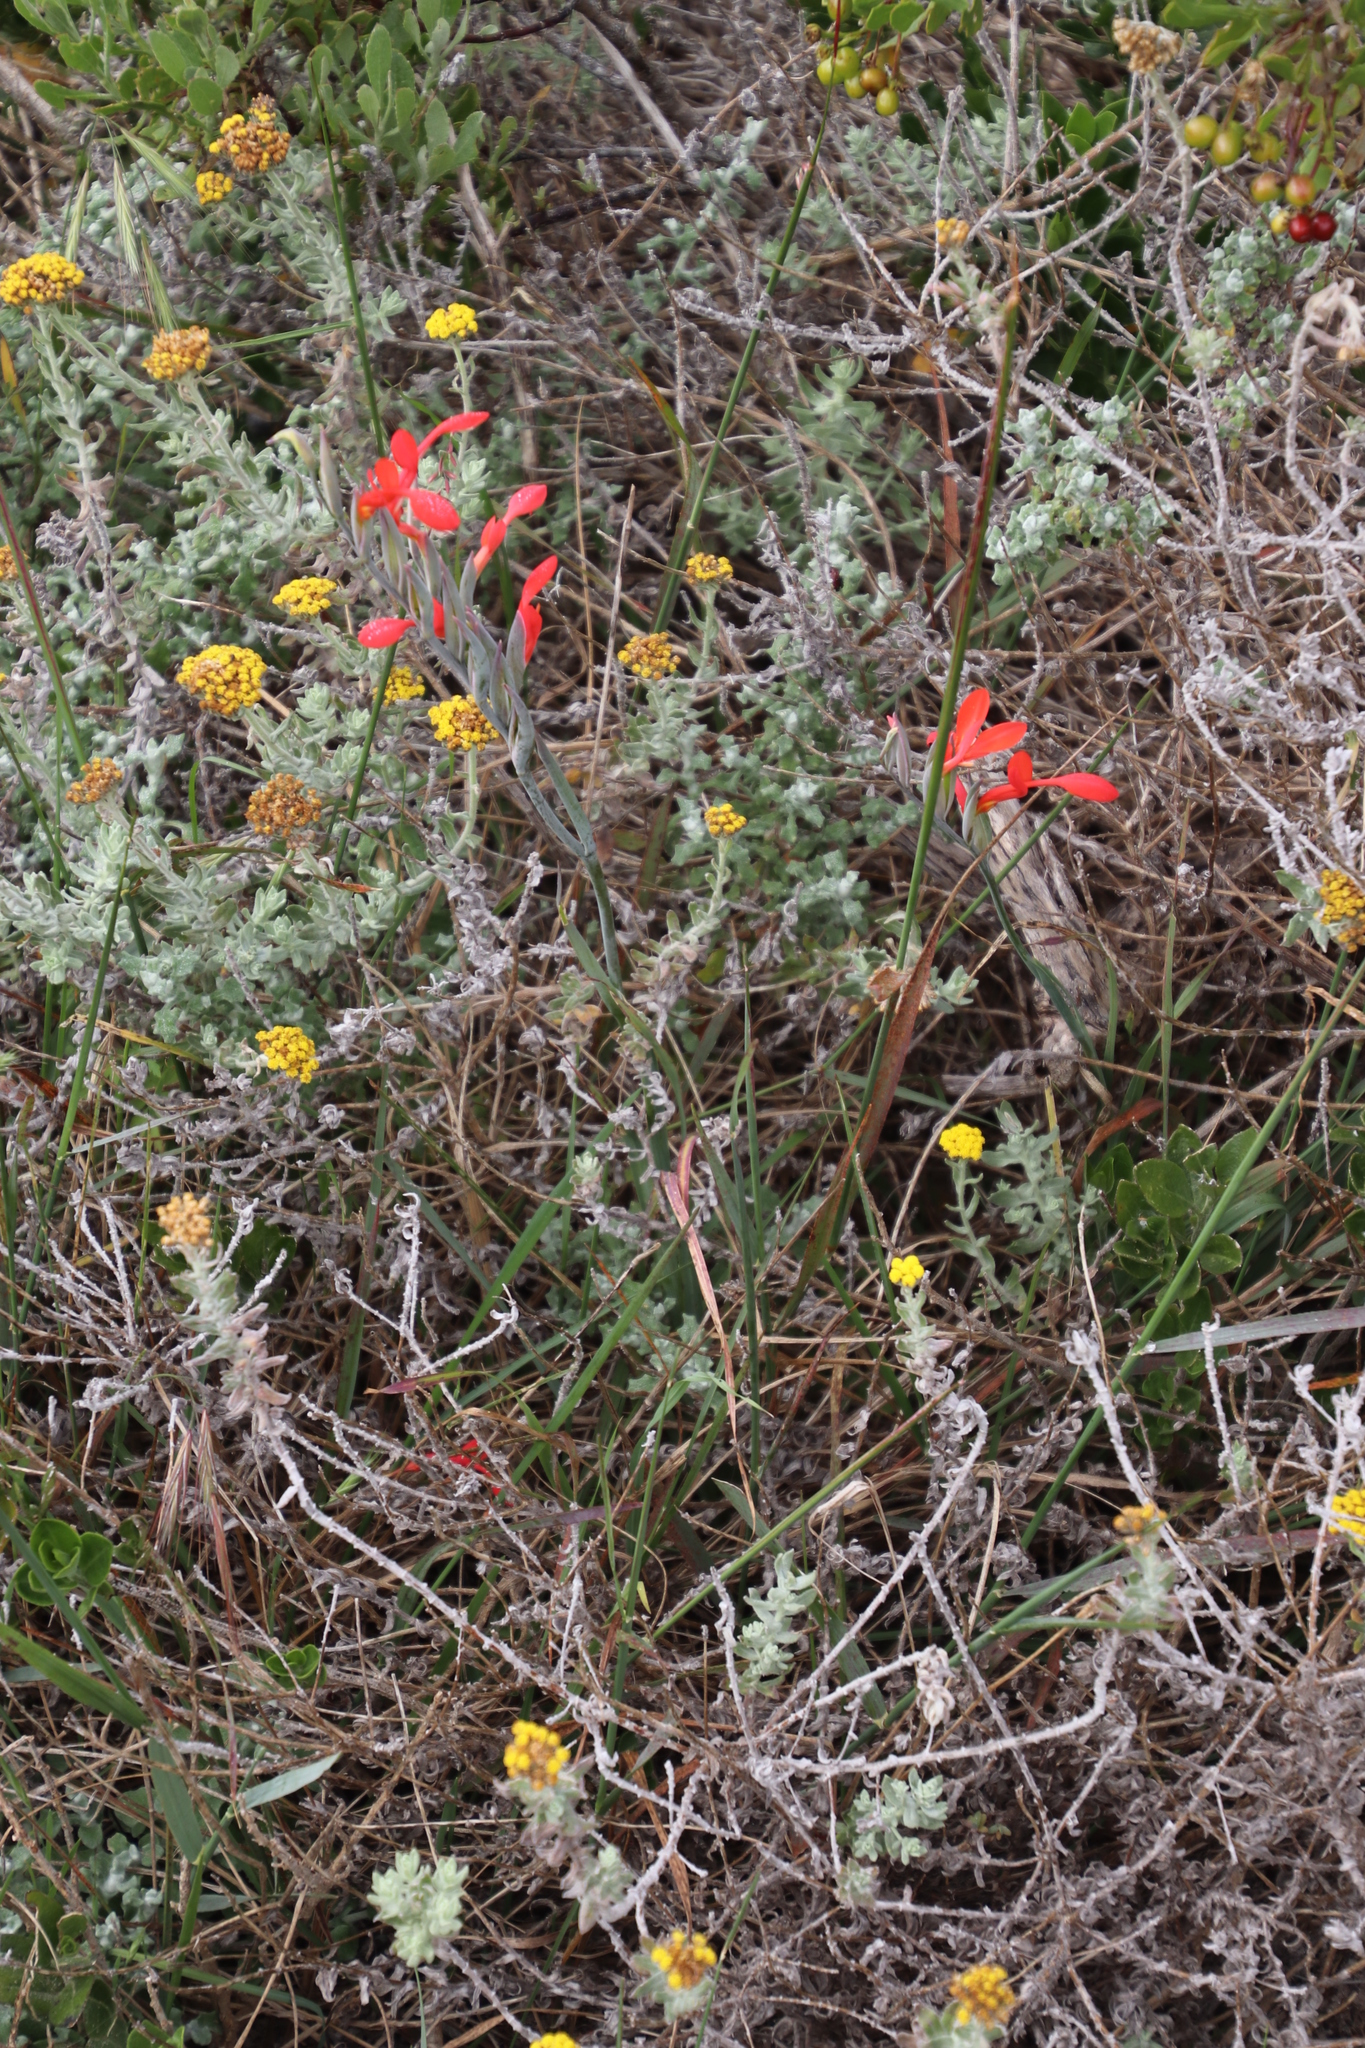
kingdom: Plantae
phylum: Tracheophyta
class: Liliopsida
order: Asparagales
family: Iridaceae
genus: Gladiolus
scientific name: Gladiolus cunonius
